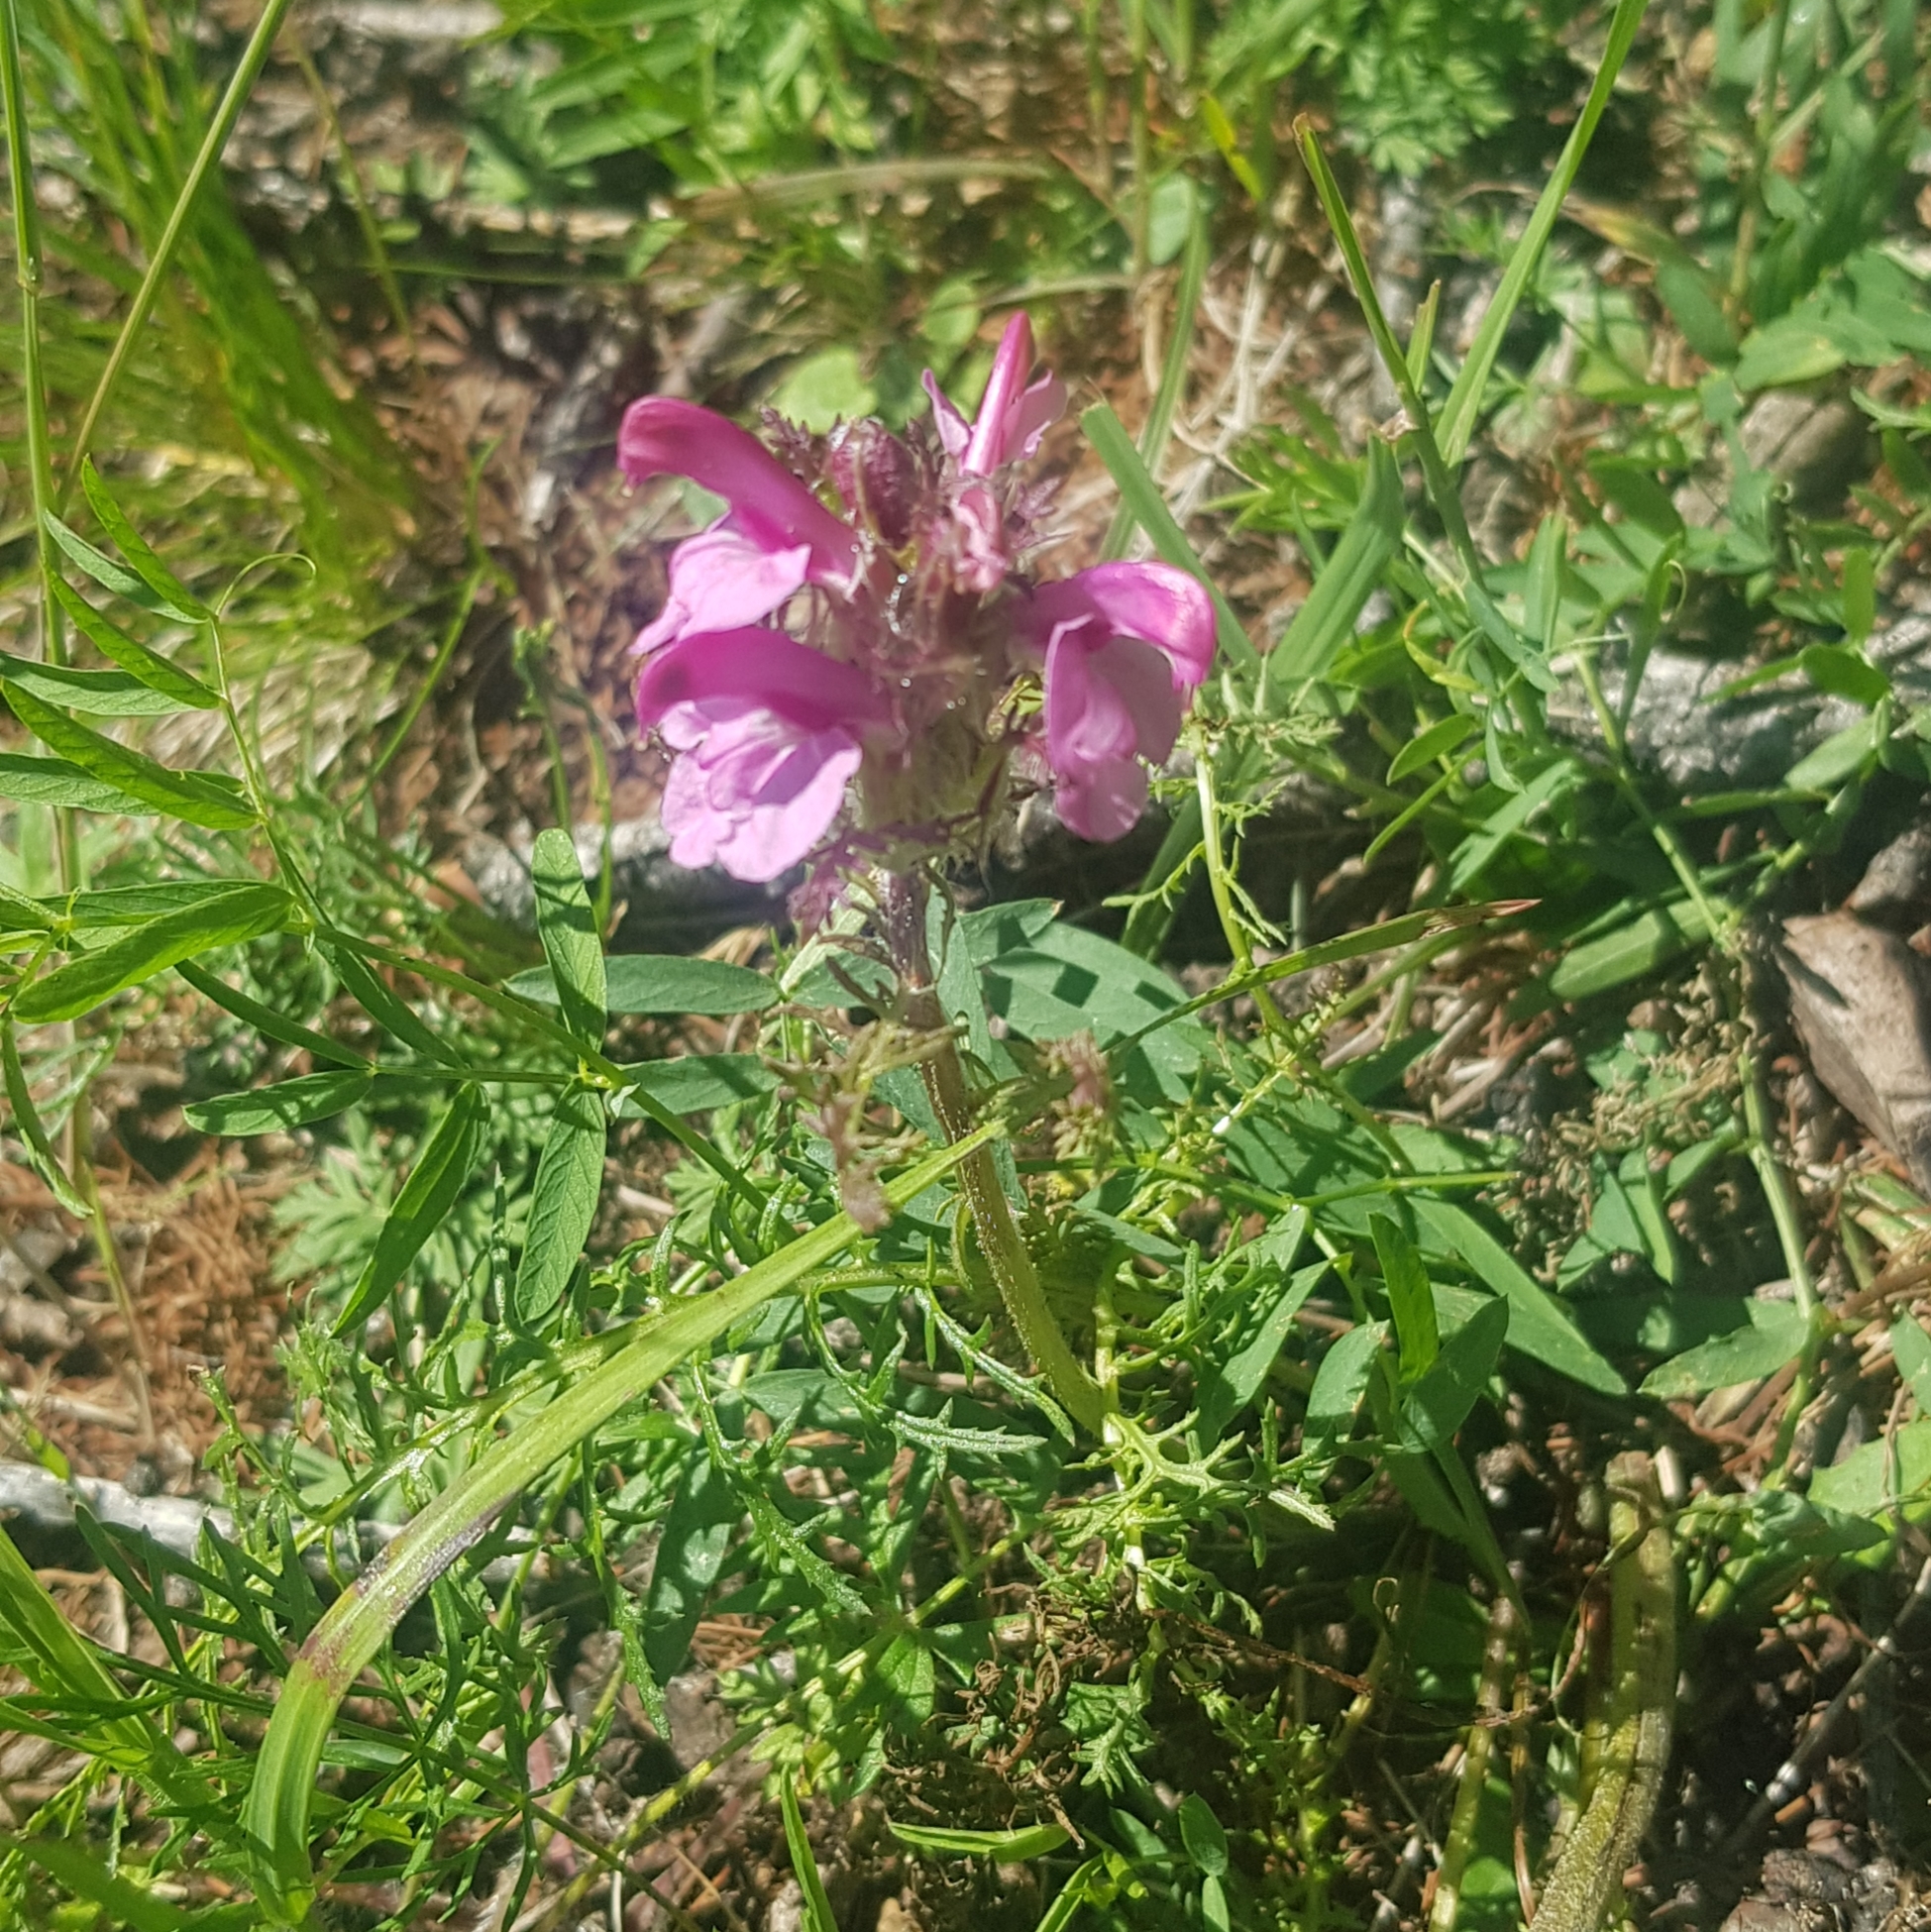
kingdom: Plantae
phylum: Tracheophyta
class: Magnoliopsida
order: Lamiales
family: Orobanchaceae
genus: Pedicularis
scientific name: Pedicularis rubens
